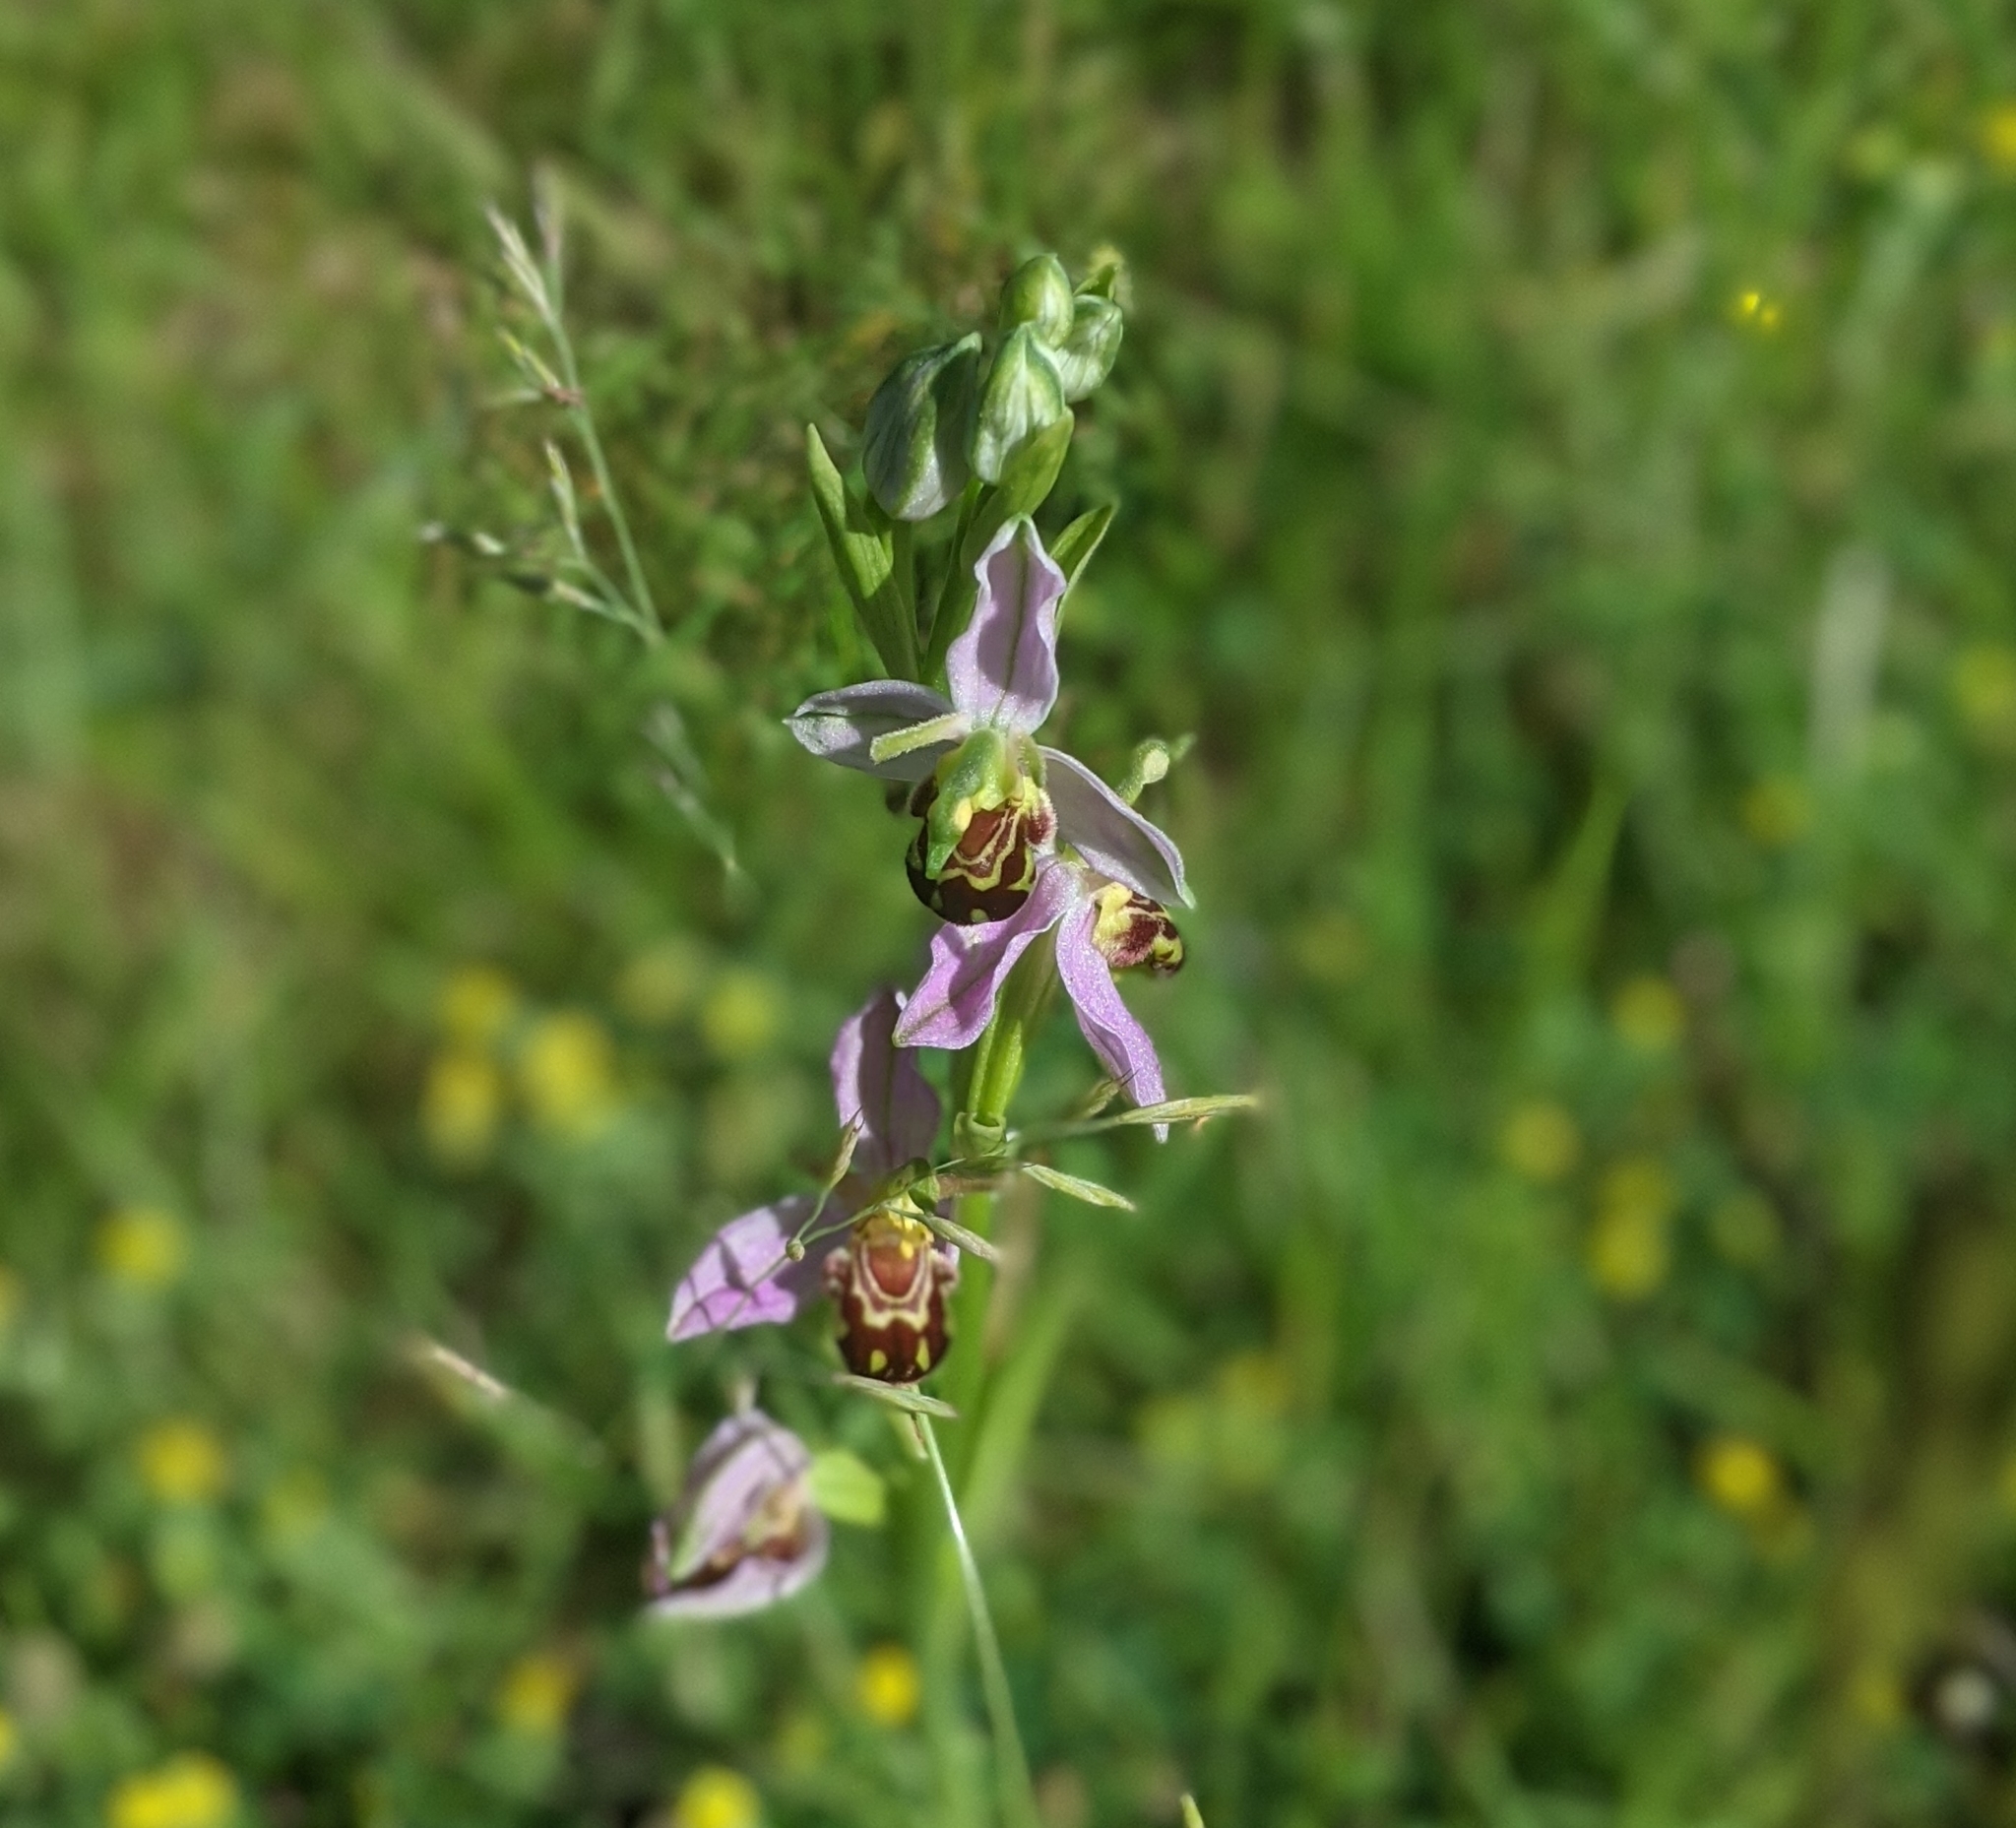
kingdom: Plantae
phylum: Tracheophyta
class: Liliopsida
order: Asparagales
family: Orchidaceae
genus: Ophrys
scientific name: Ophrys apifera
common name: Bee orchid
